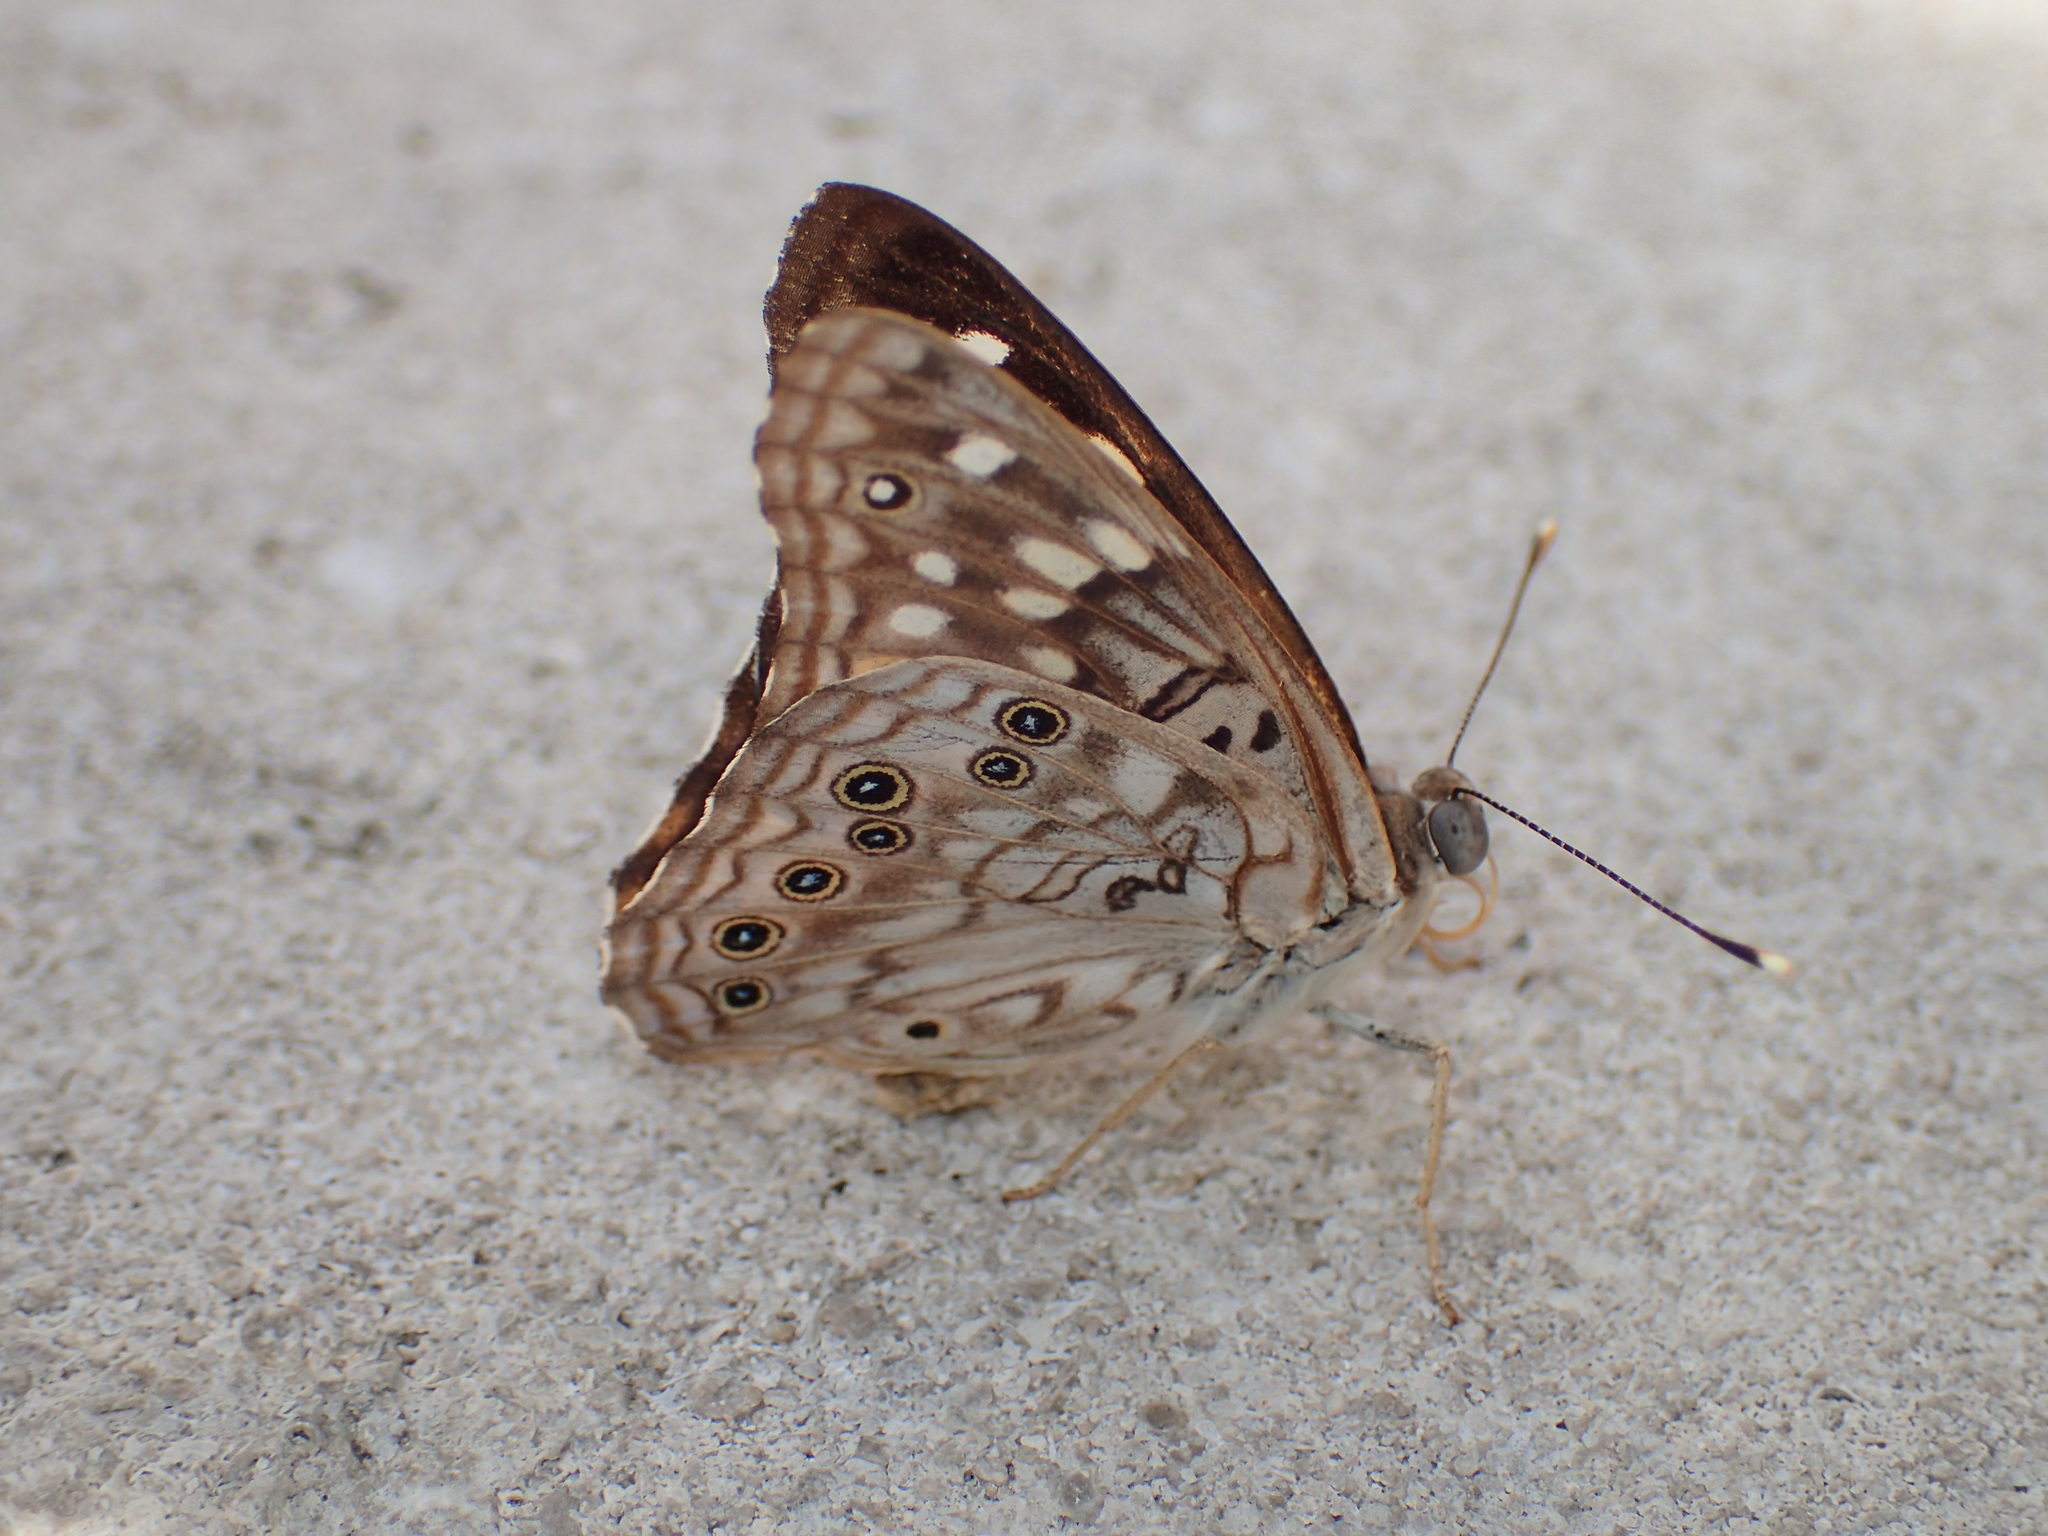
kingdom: Animalia
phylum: Arthropoda
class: Insecta
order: Lepidoptera
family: Nymphalidae
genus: Asterocampa
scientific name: Asterocampa celtis
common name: Hackberry emperor
